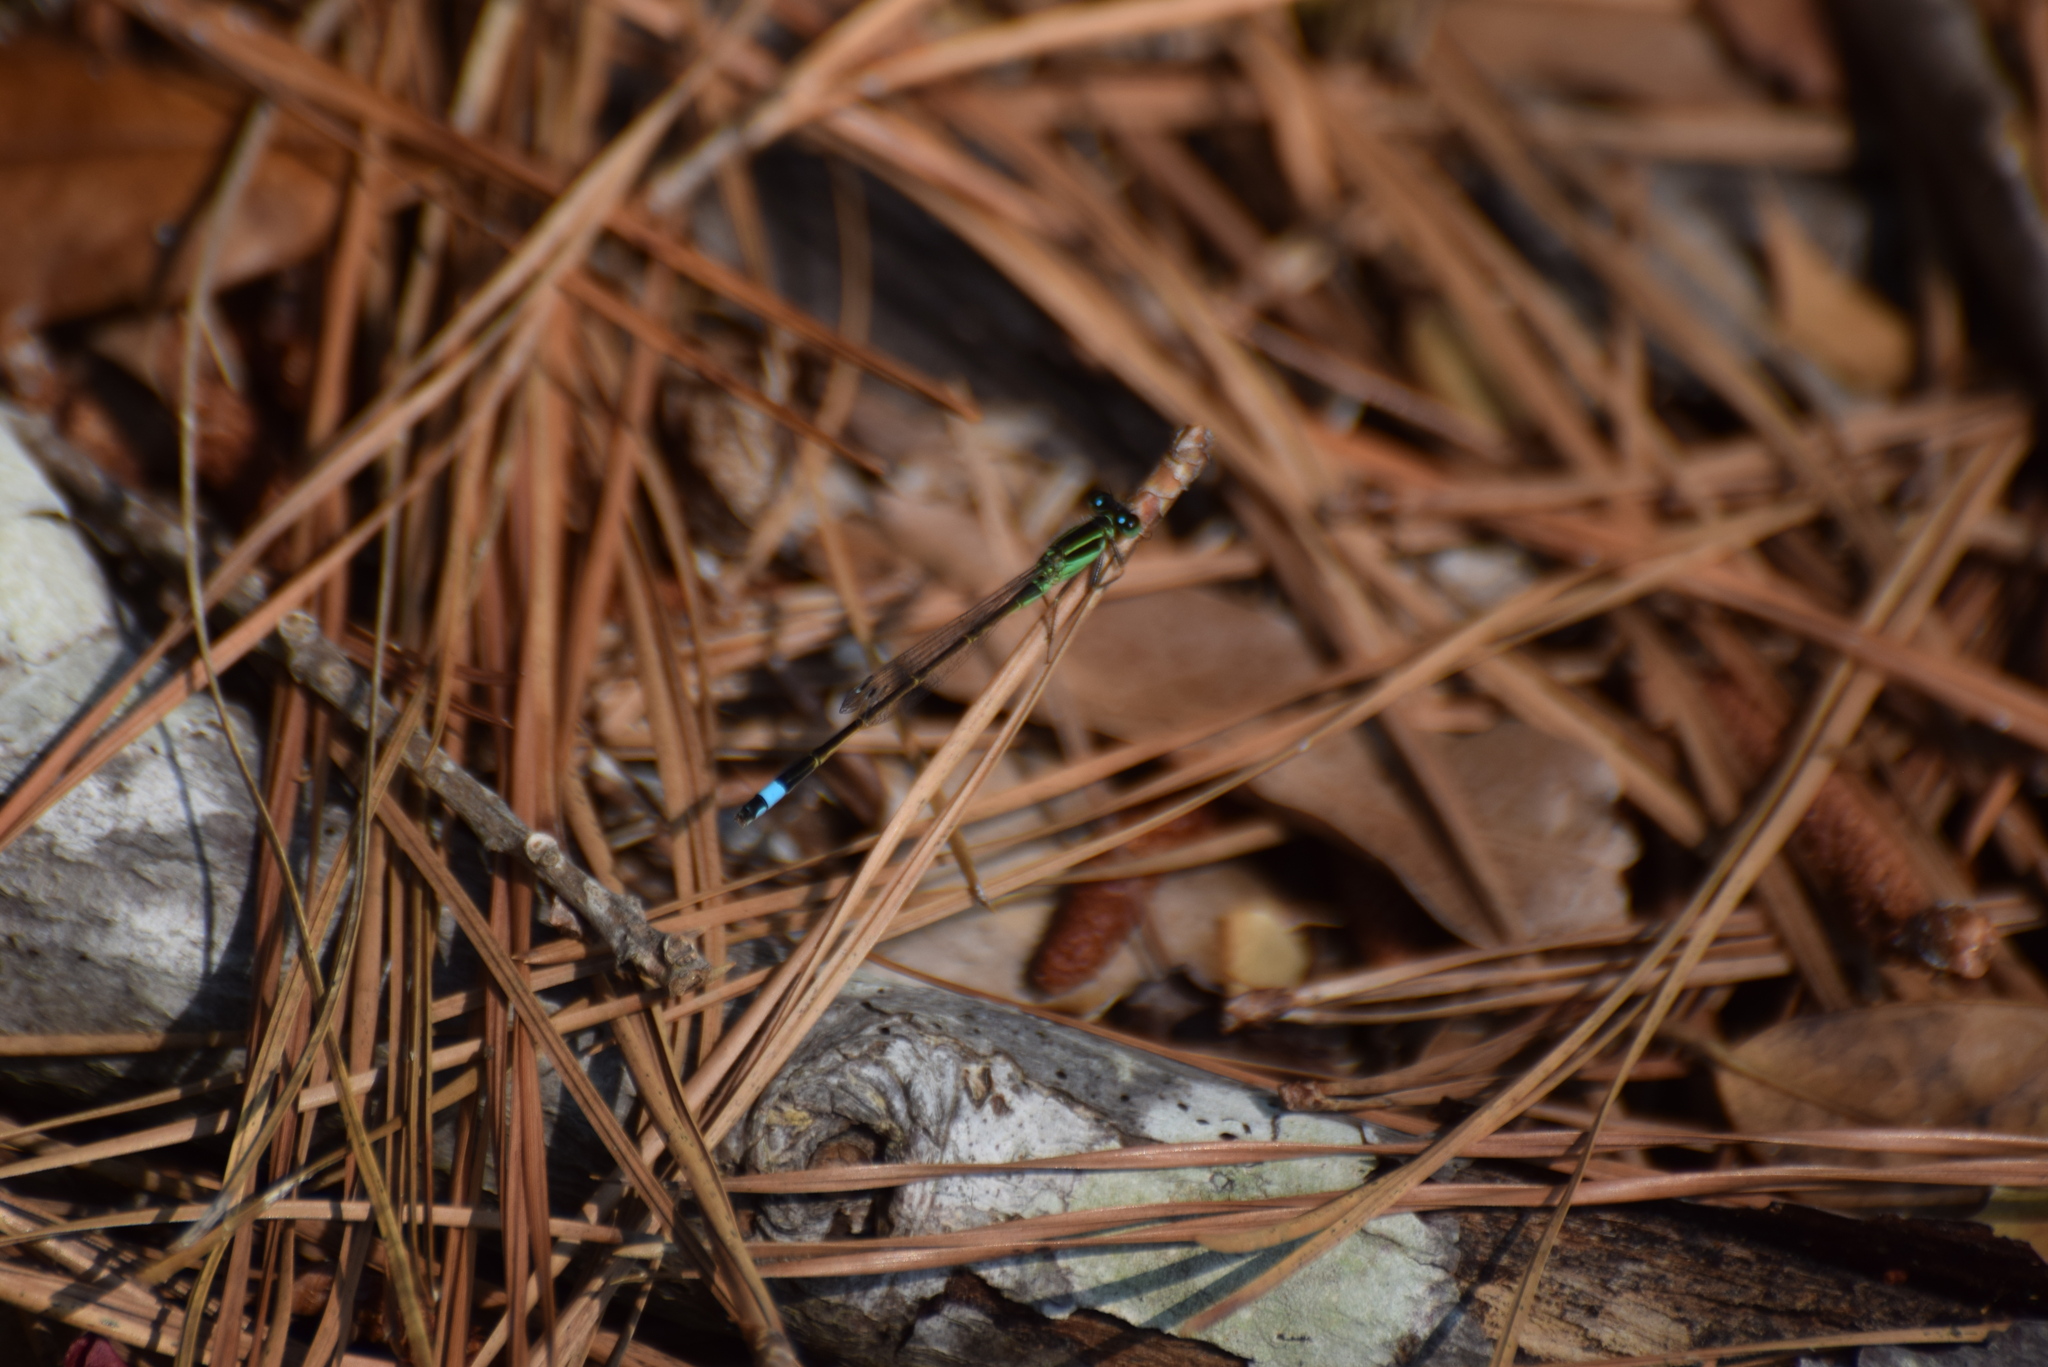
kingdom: Animalia
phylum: Arthropoda
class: Insecta
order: Odonata
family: Coenagrionidae
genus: Ischnura
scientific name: Ischnura ramburii
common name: Rambur's forktail
